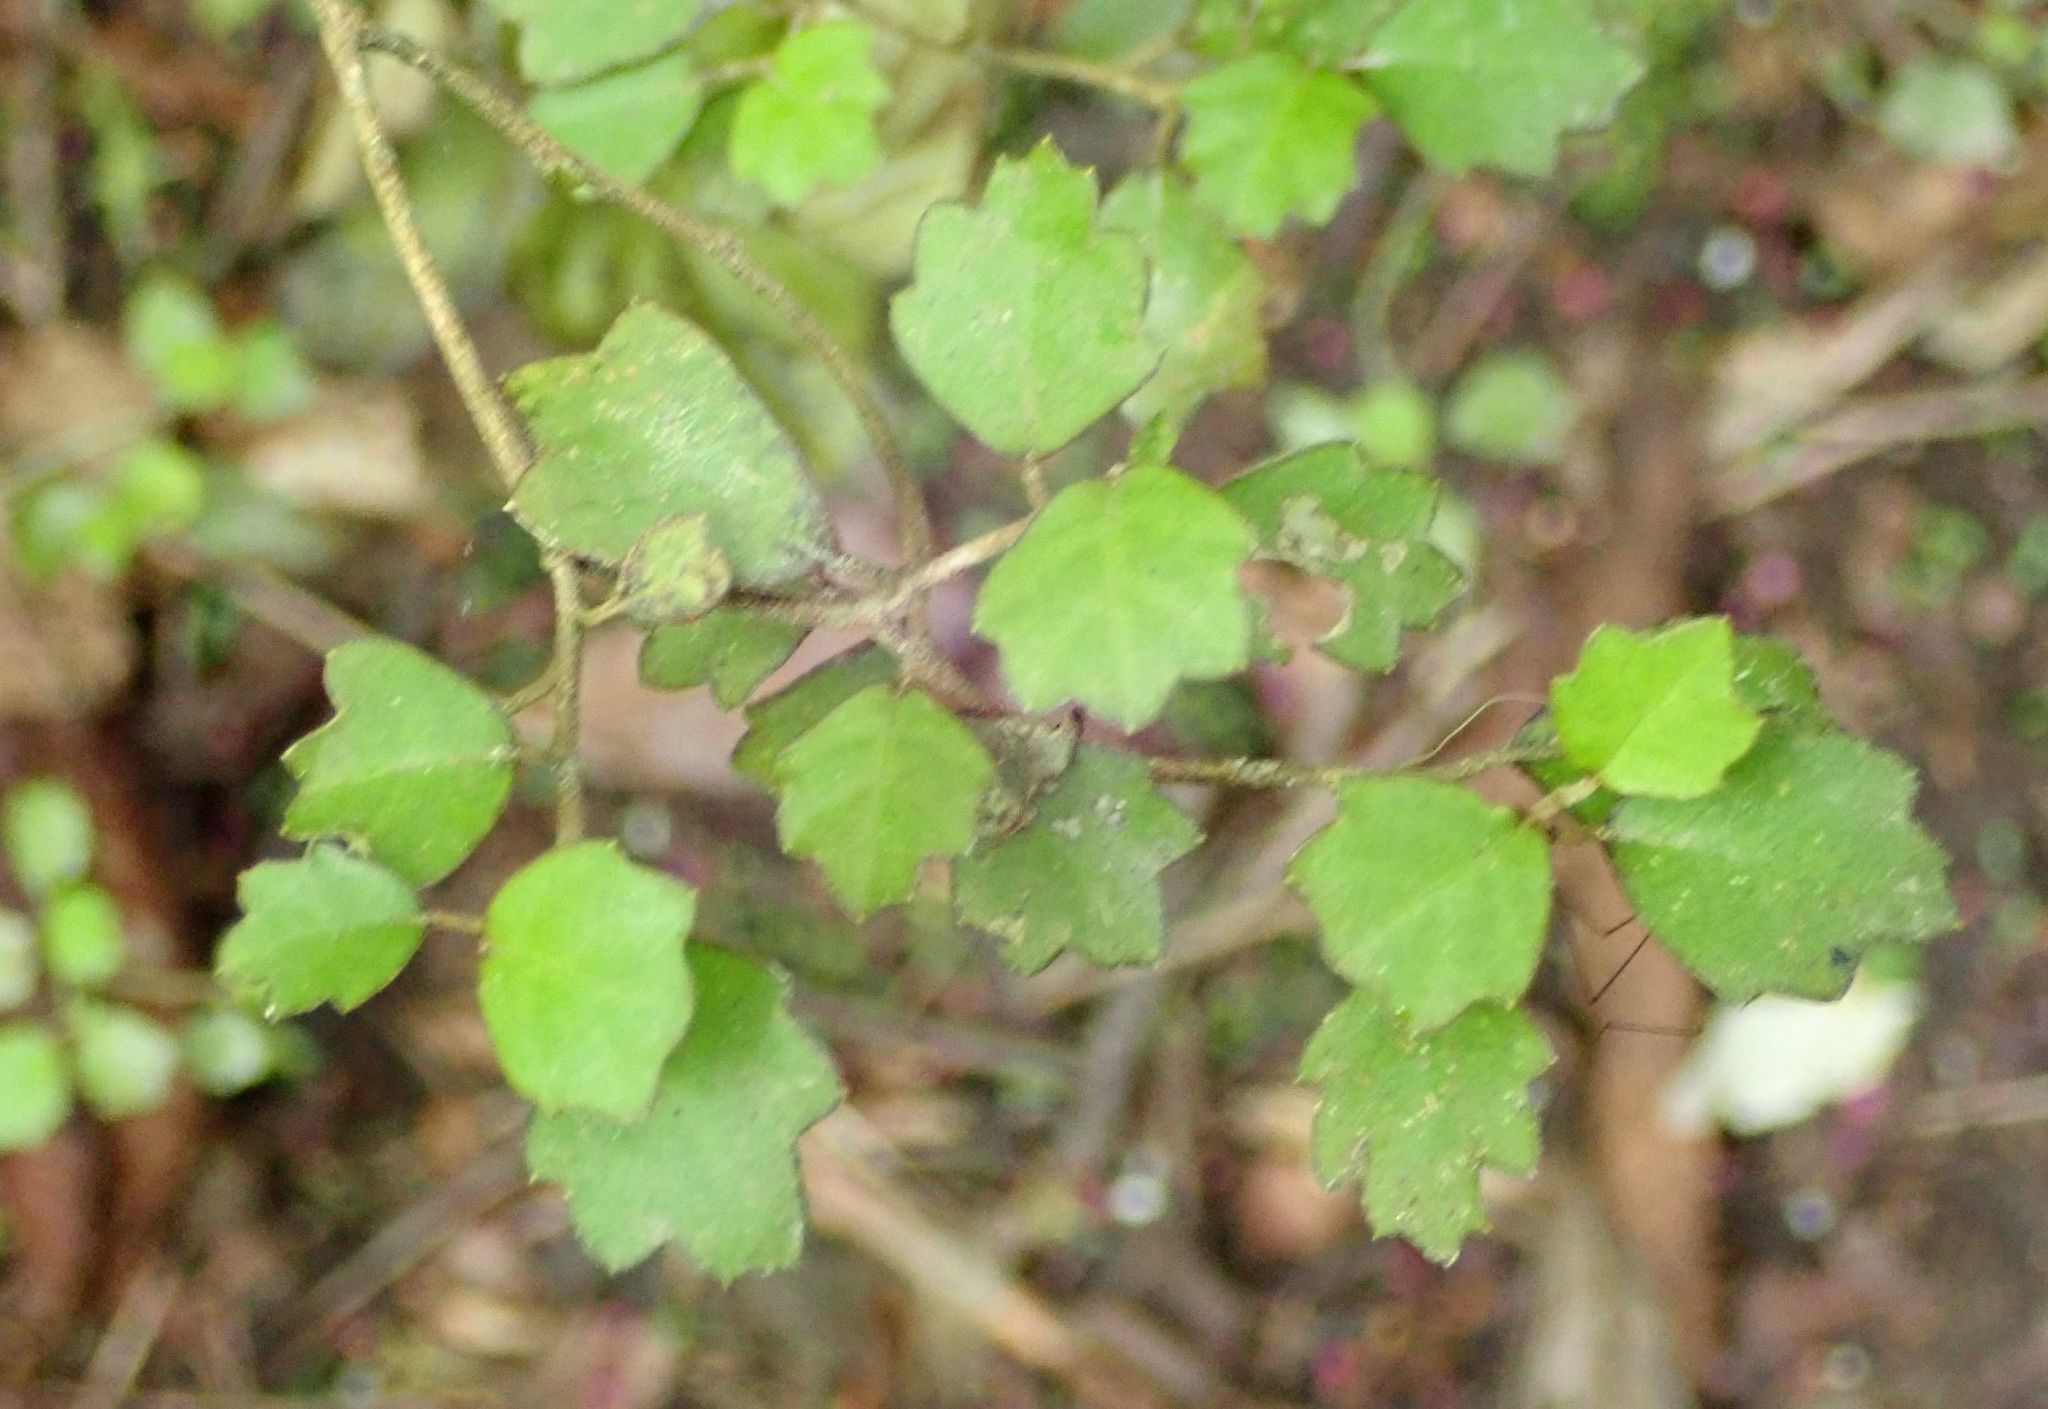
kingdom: Plantae
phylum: Tracheophyta
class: Magnoliopsida
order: Apiales
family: Pennantiaceae
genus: Pennantia
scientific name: Pennantia corymbosa
